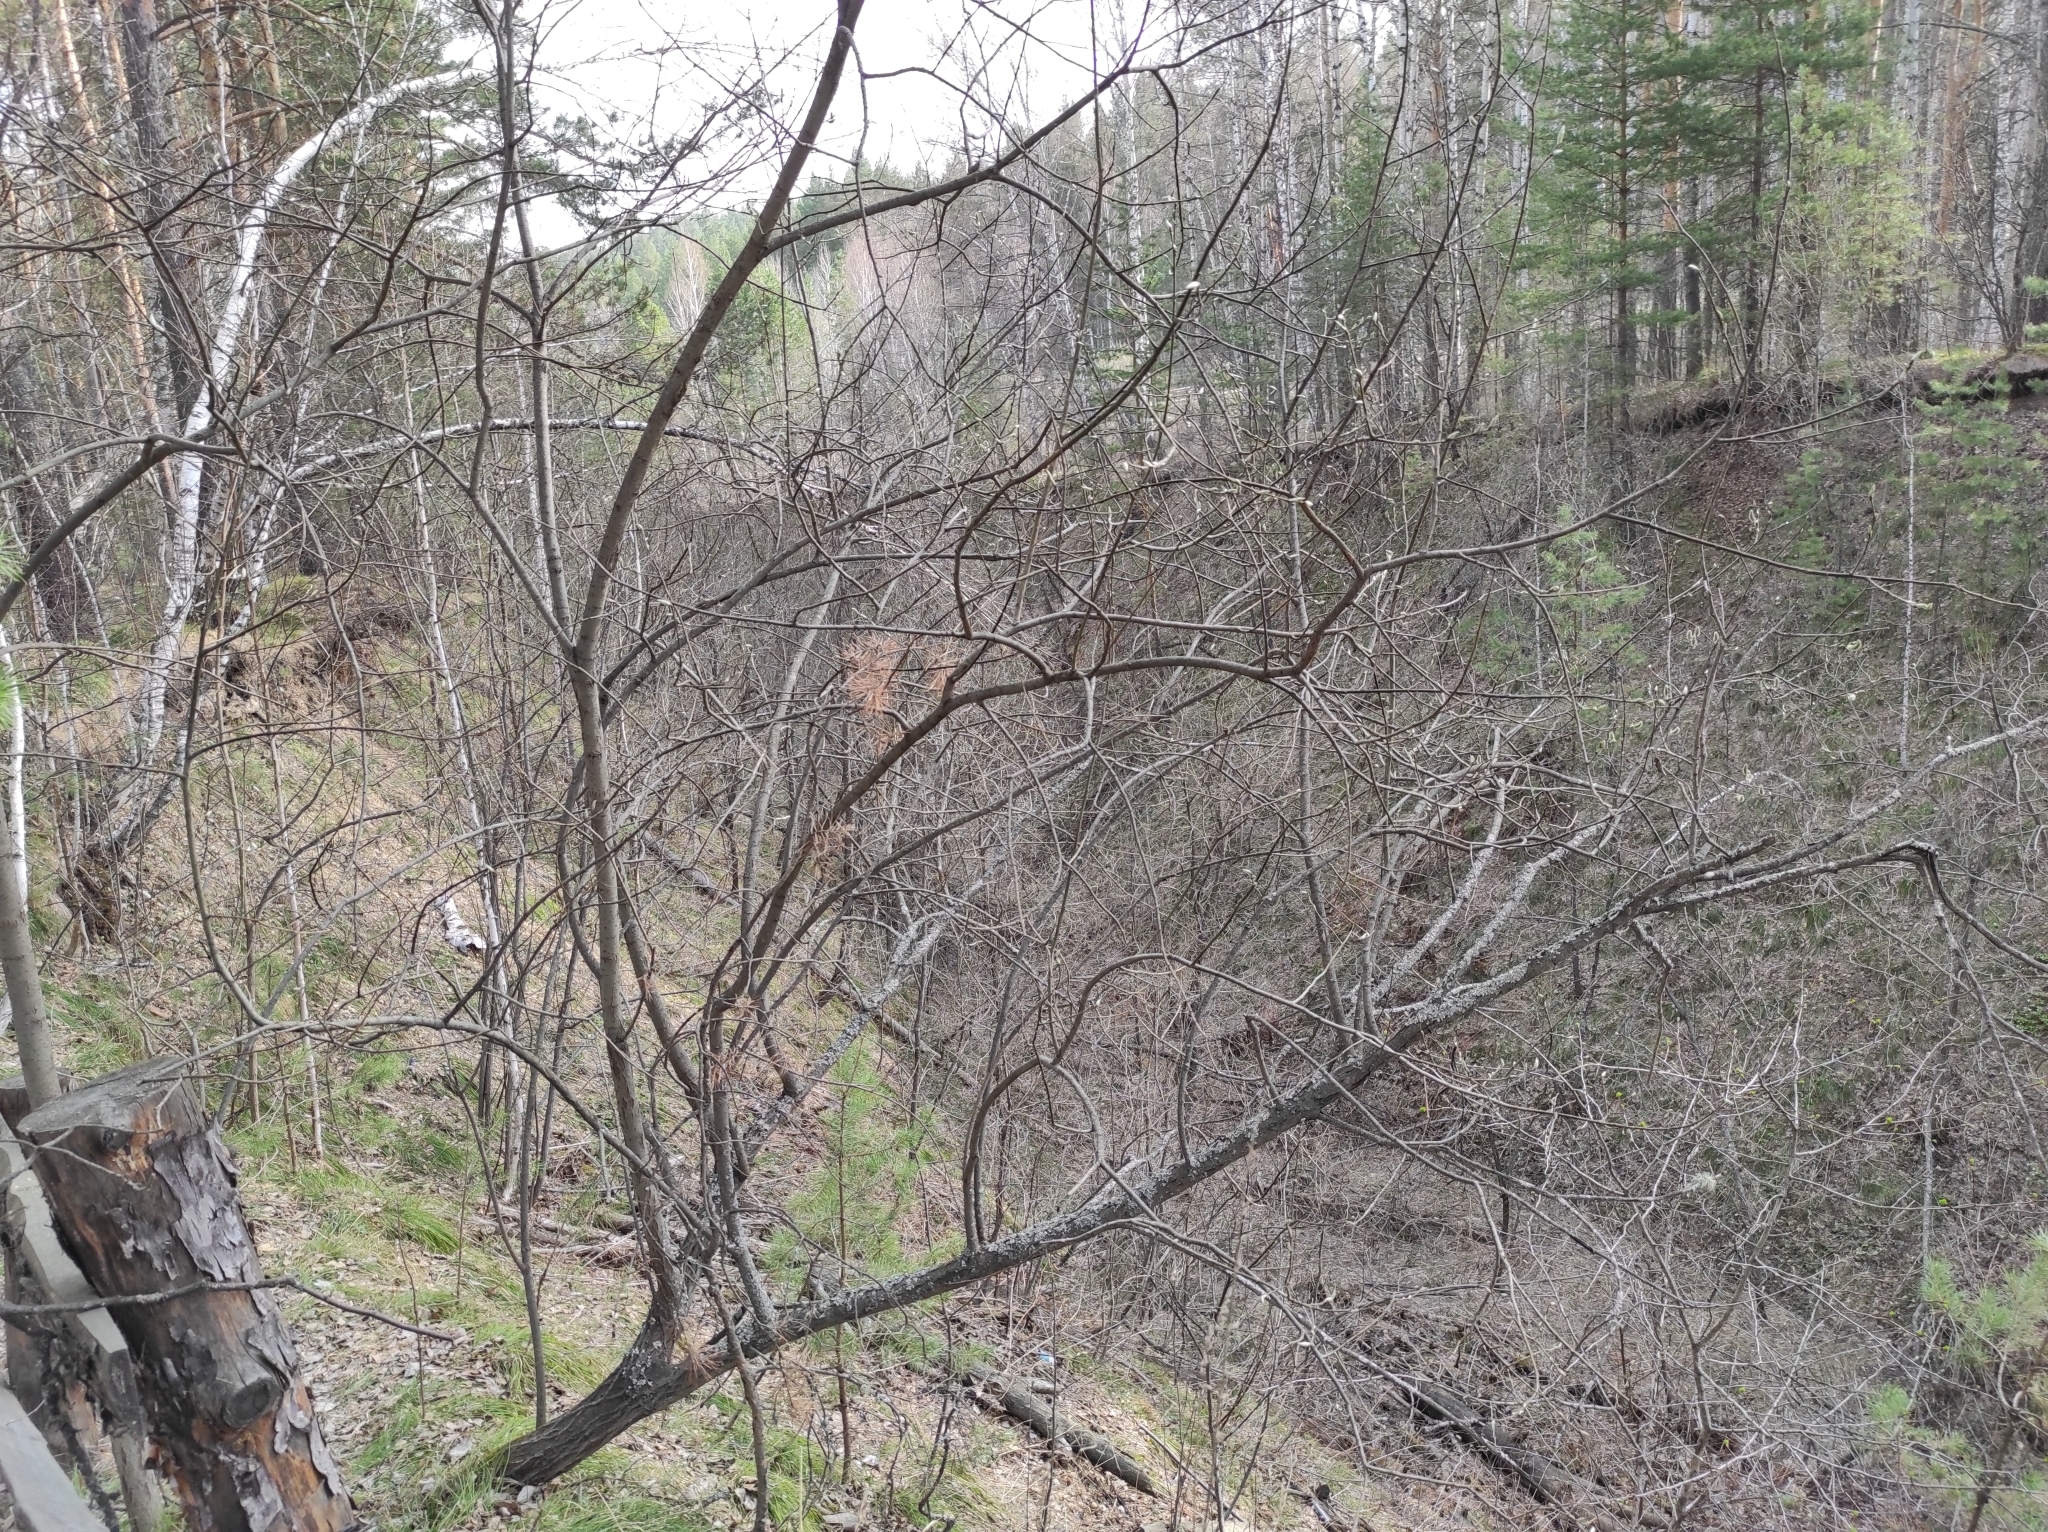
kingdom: Plantae
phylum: Tracheophyta
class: Pinopsida
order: Pinales
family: Pinaceae
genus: Pinus
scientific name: Pinus sylvestris
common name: Scots pine
